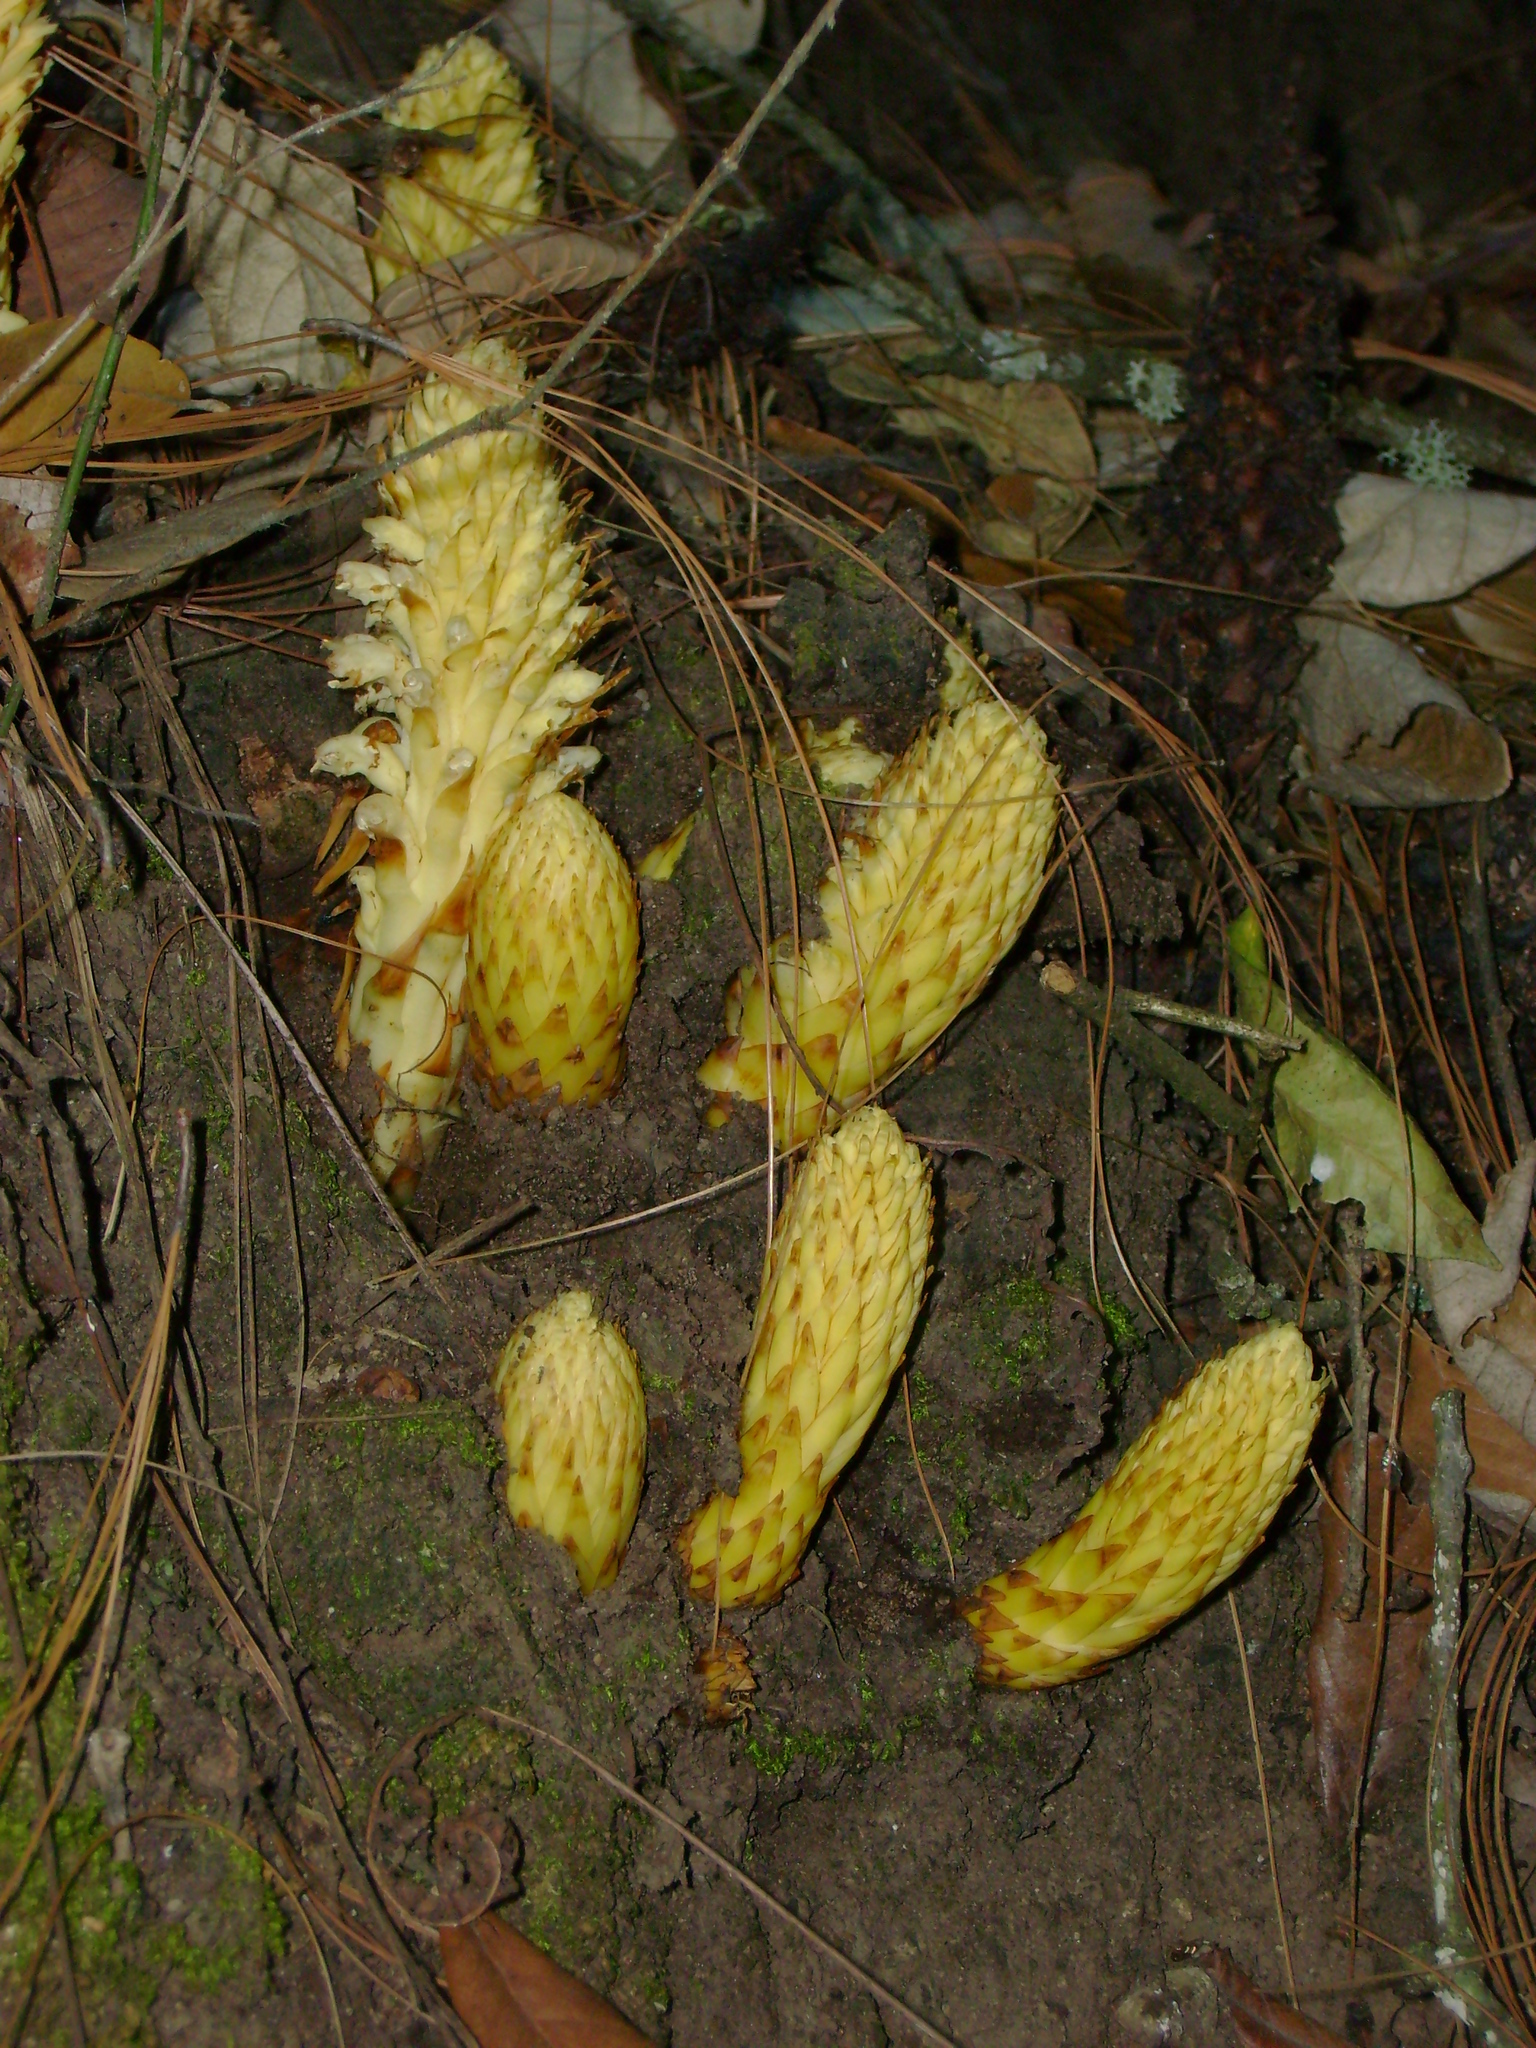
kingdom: Plantae
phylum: Tracheophyta
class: Magnoliopsida
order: Lamiales
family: Orobanchaceae
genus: Conopholis
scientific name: Conopholis alpina
